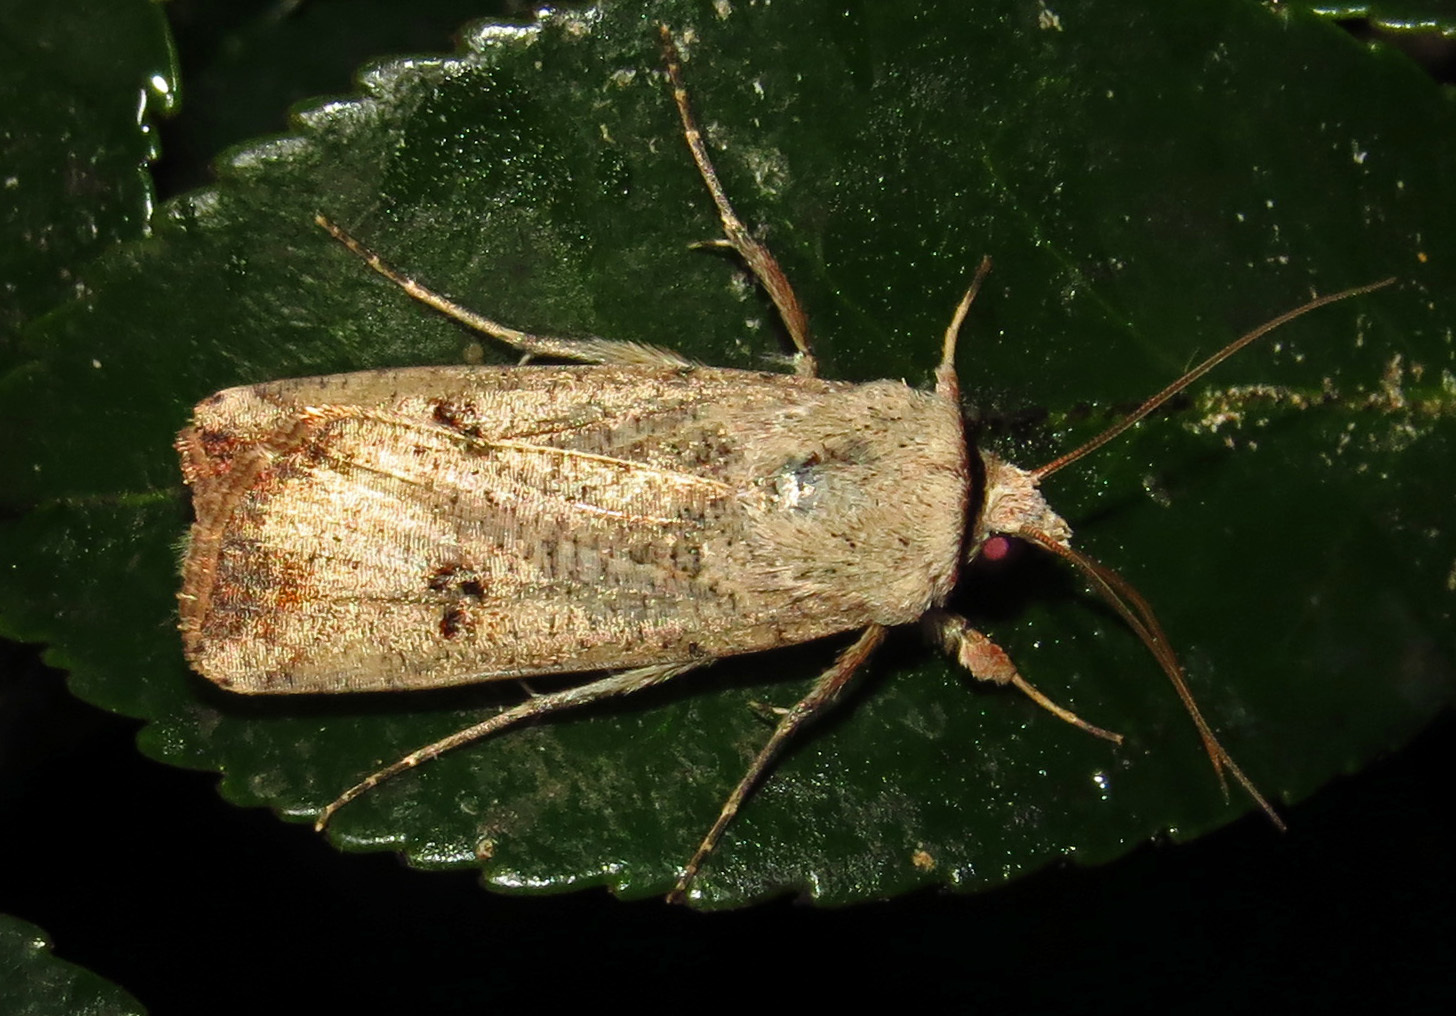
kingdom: Animalia
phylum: Arthropoda
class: Insecta
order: Lepidoptera
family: Noctuidae
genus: Anicla
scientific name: Anicla infecta
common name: Green cutworm
